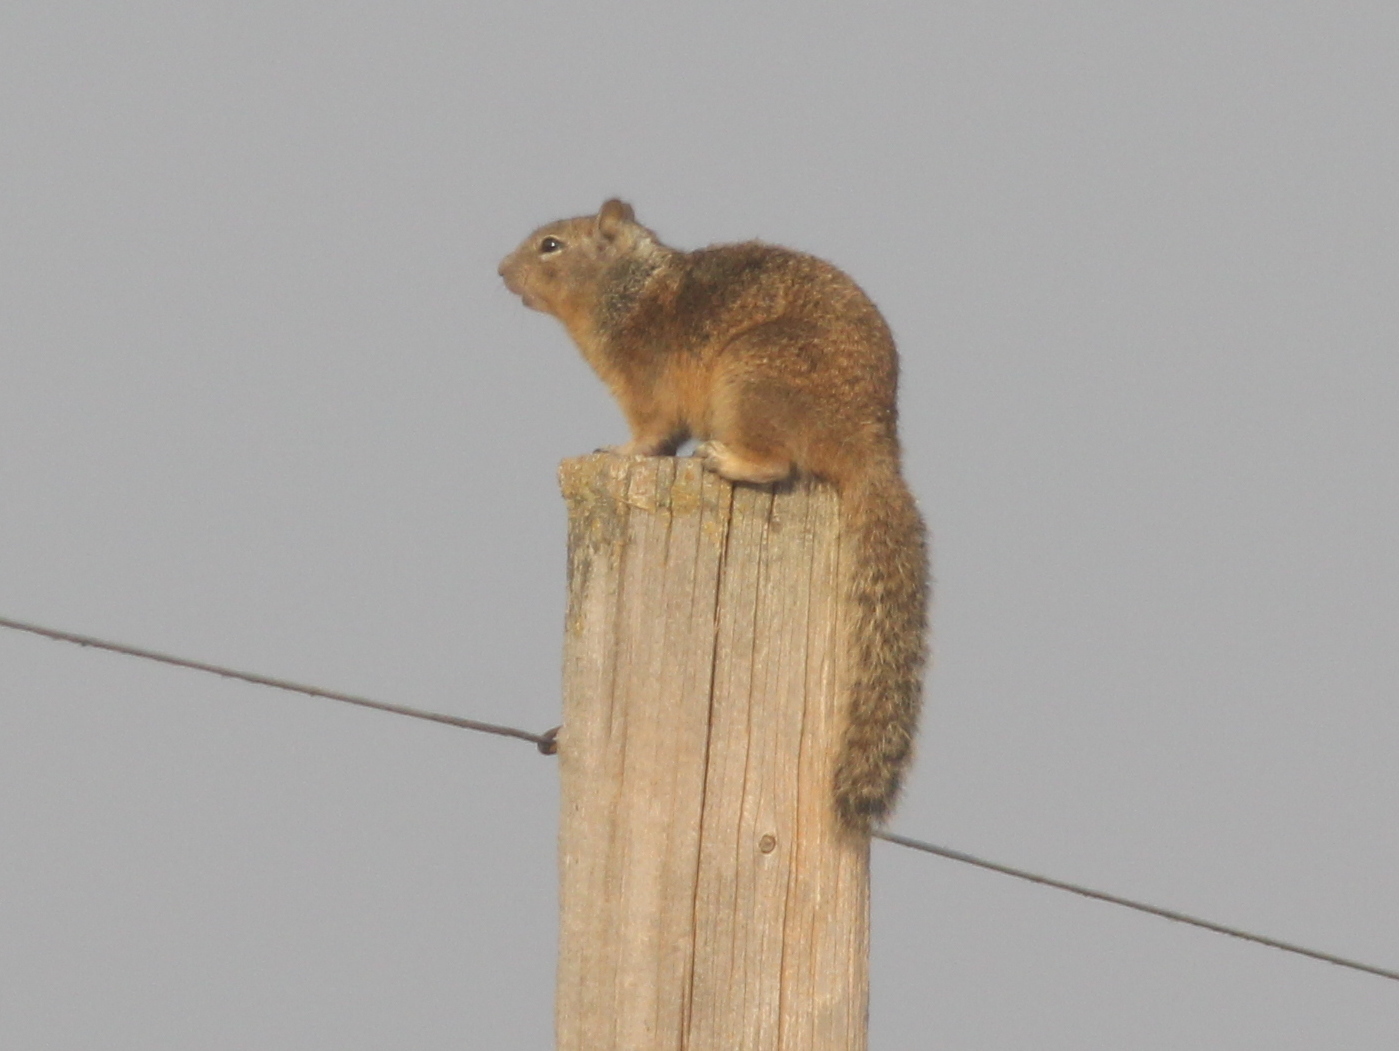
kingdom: Animalia
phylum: Chordata
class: Mammalia
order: Rodentia
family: Sciuridae
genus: Otospermophilus
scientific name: Otospermophilus beecheyi
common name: California ground squirrel
